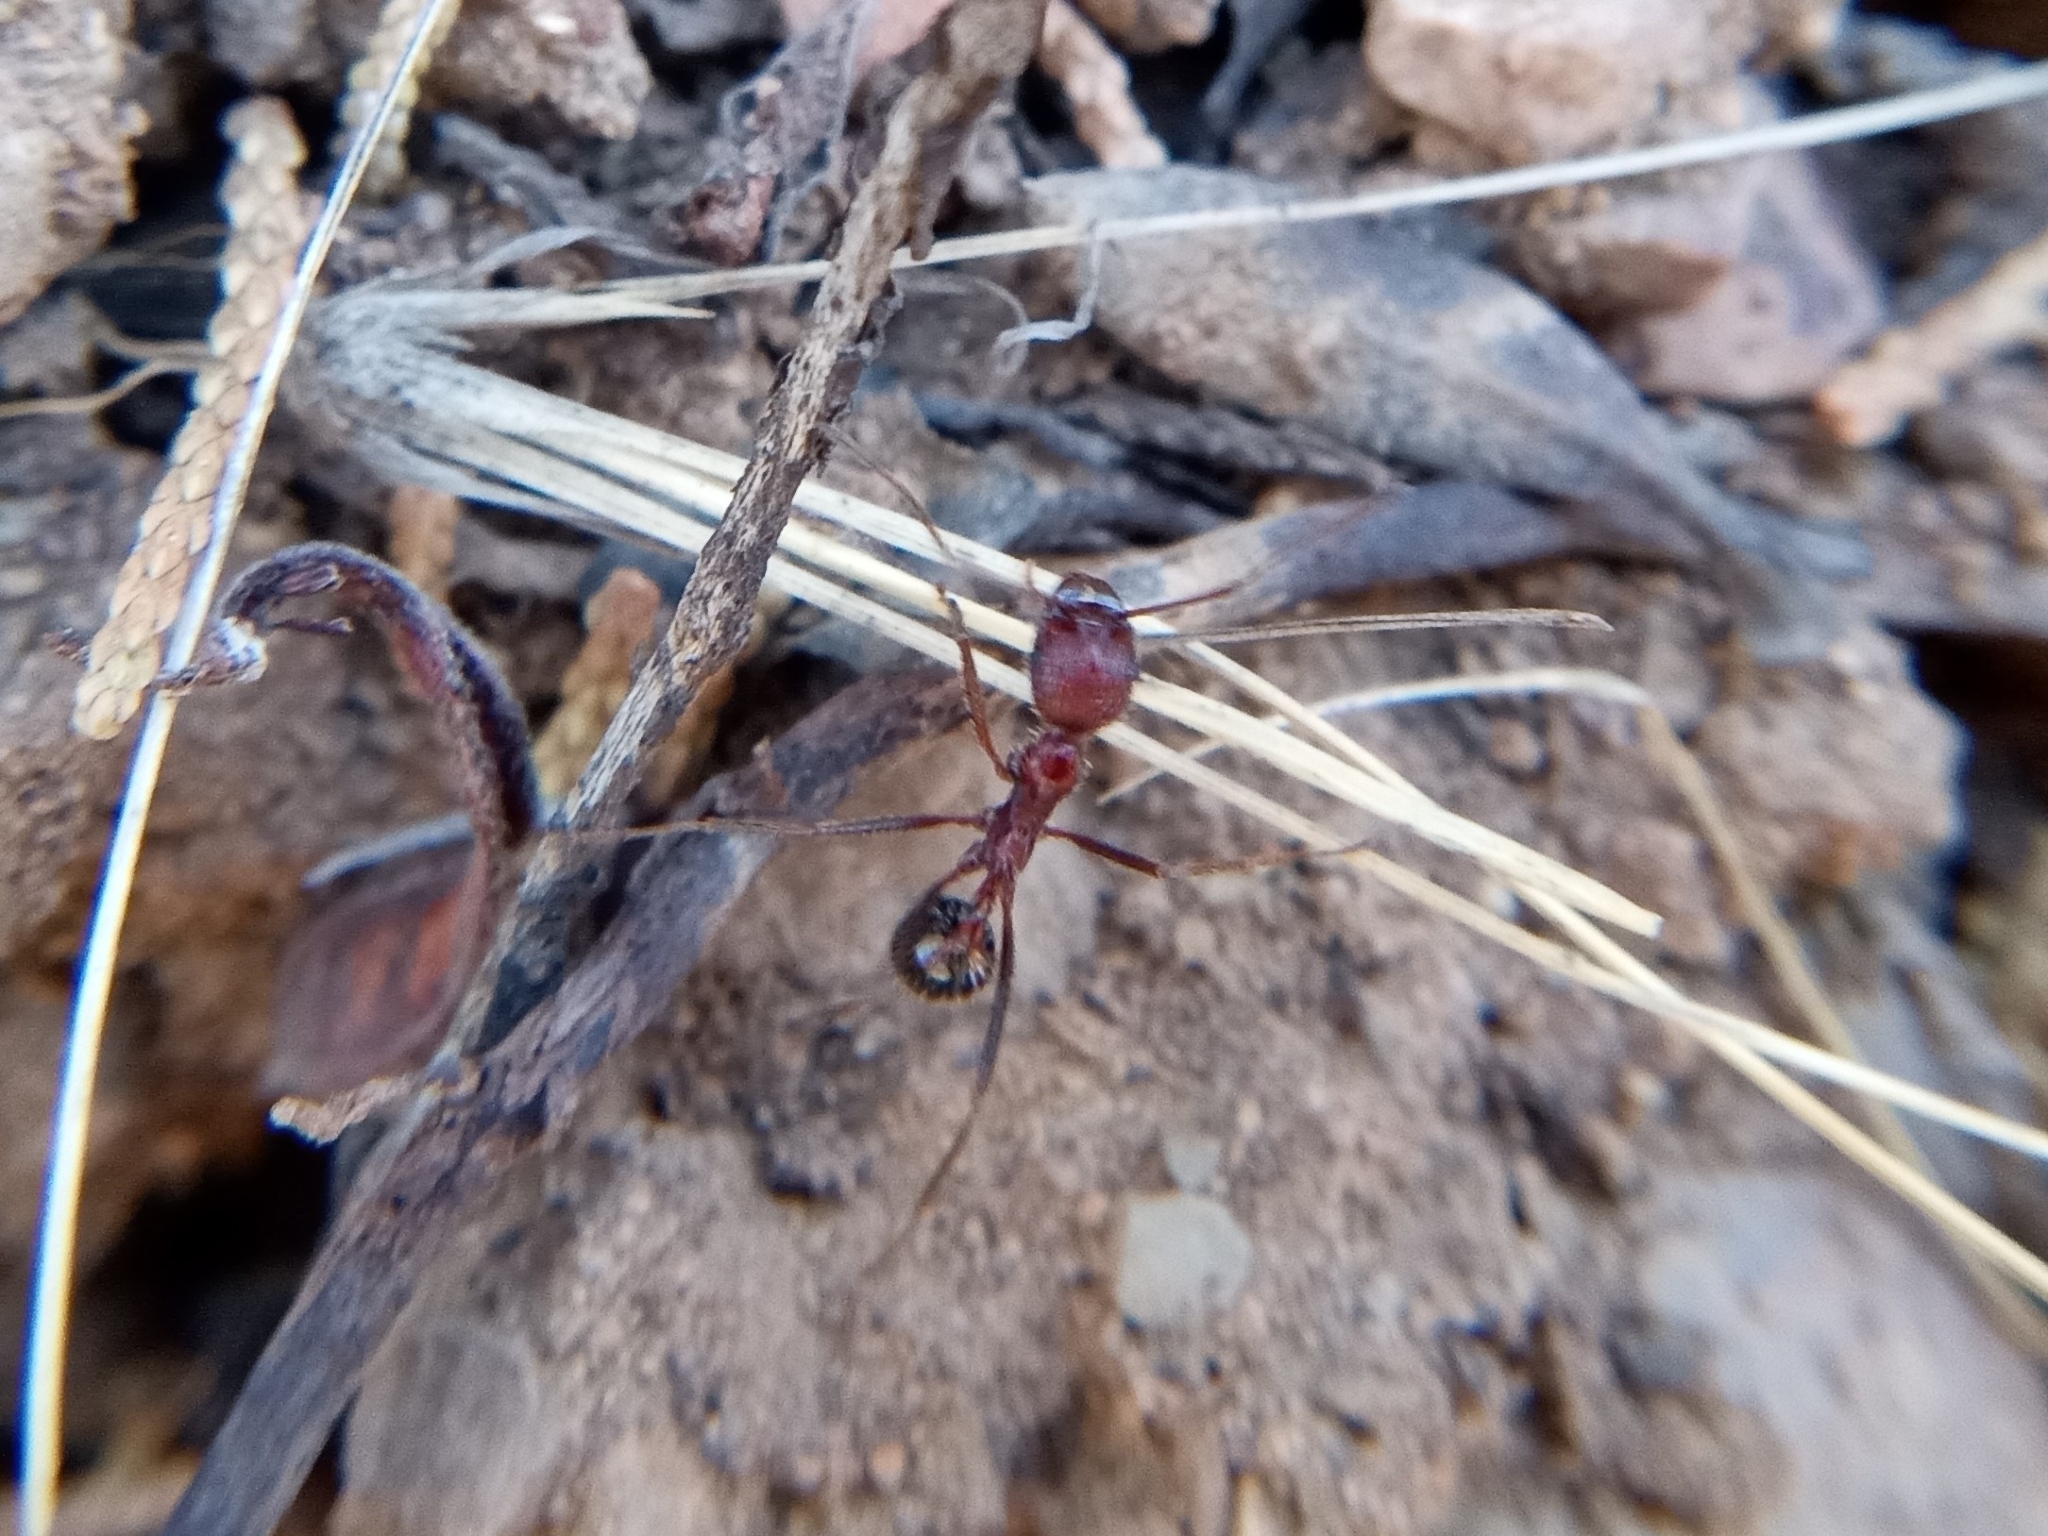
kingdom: Animalia
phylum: Arthropoda
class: Insecta
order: Hymenoptera
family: Formicidae
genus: Novomessor
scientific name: Novomessor albisetosa
